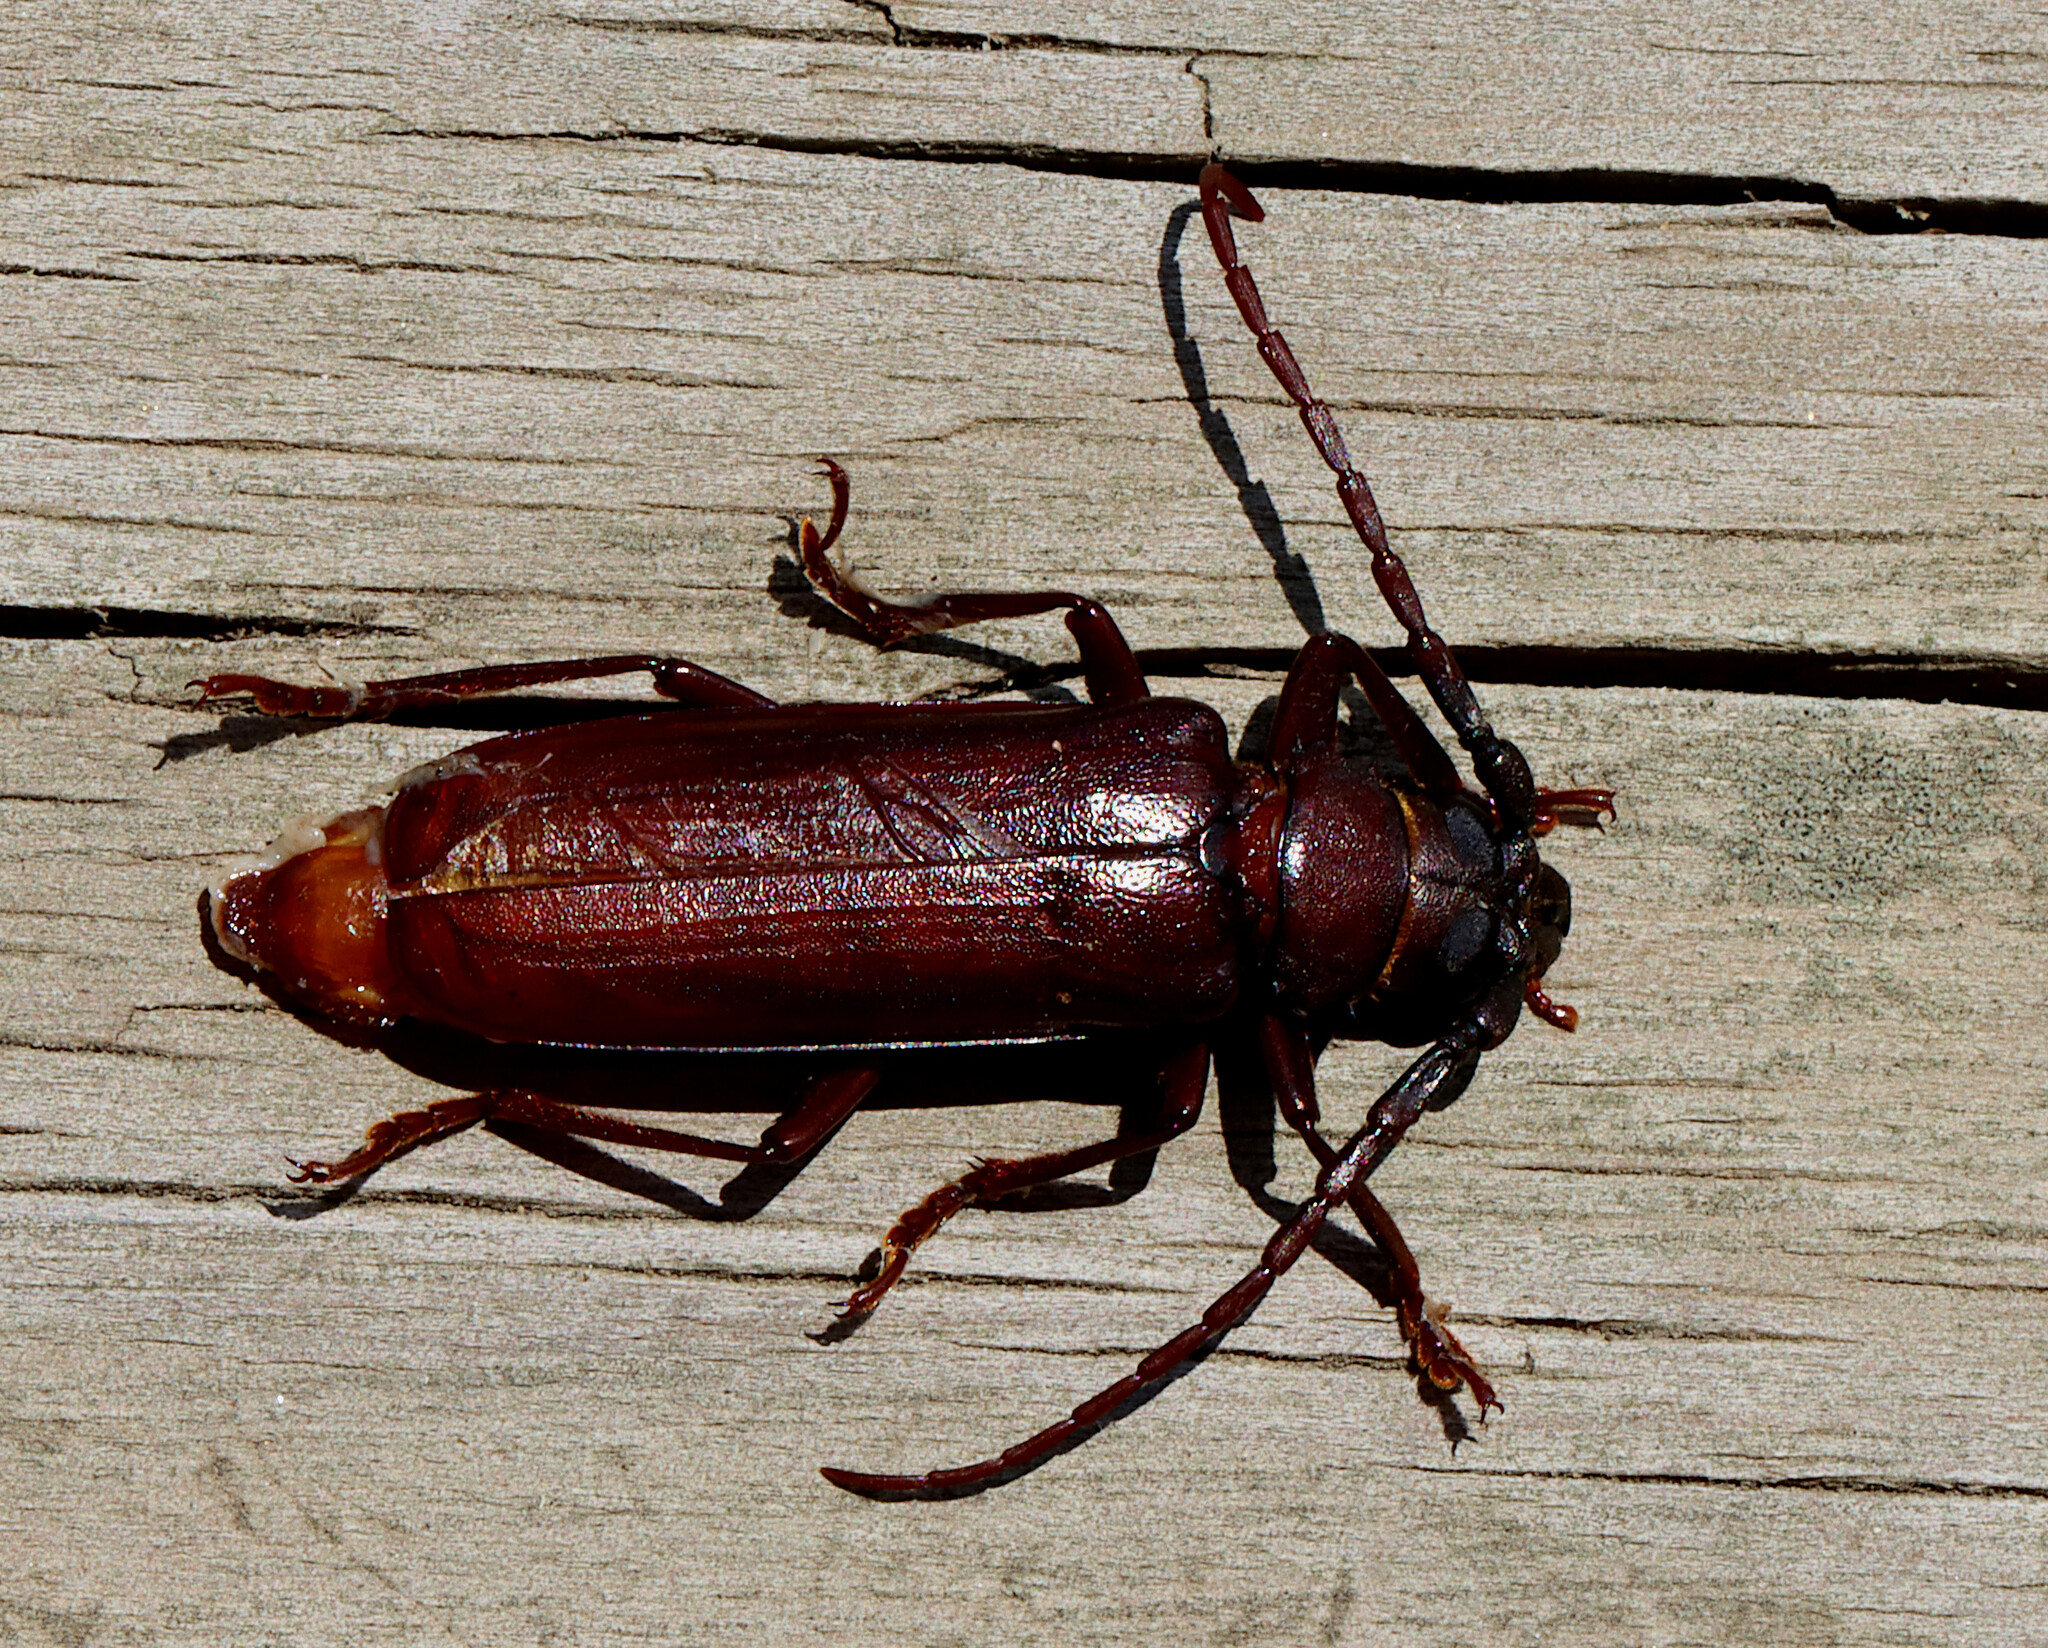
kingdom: Animalia
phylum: Arthropoda
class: Insecta
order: Coleoptera
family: Cerambycidae
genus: Orthosoma
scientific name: Orthosoma brunneum
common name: Brown prionid beetle
